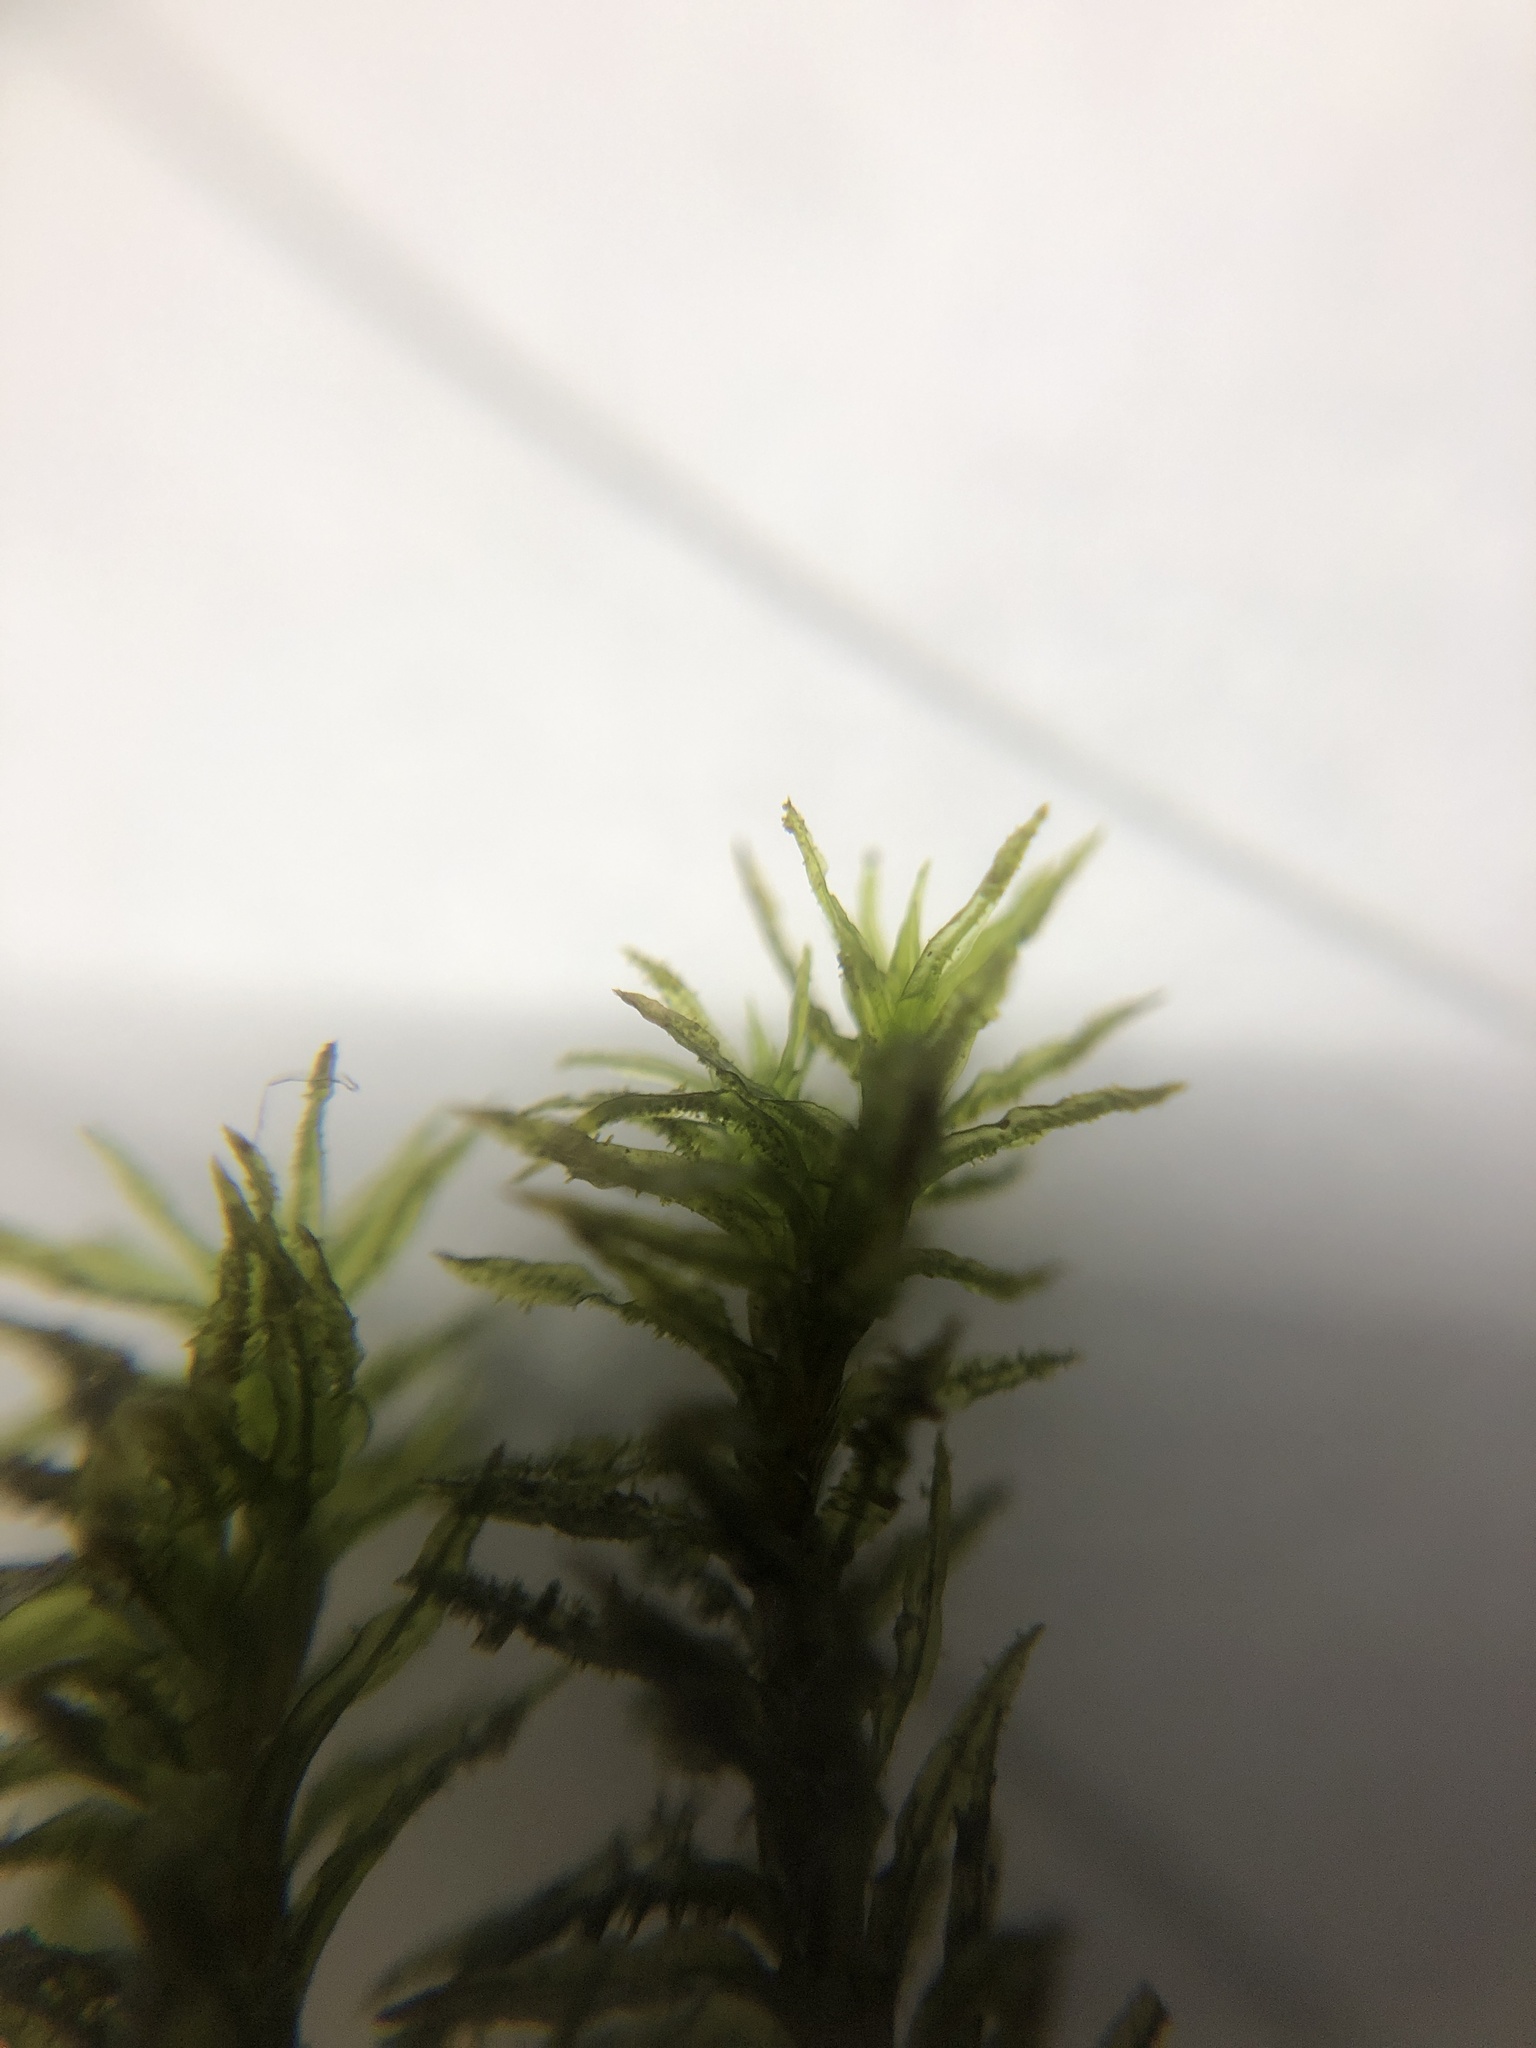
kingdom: Plantae
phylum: Bryophyta
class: Bryopsida
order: Orthotrichales
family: Orthotrichaceae
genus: Pulvigera
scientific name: Pulvigera lyellii
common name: Lyell's bristle-moss
